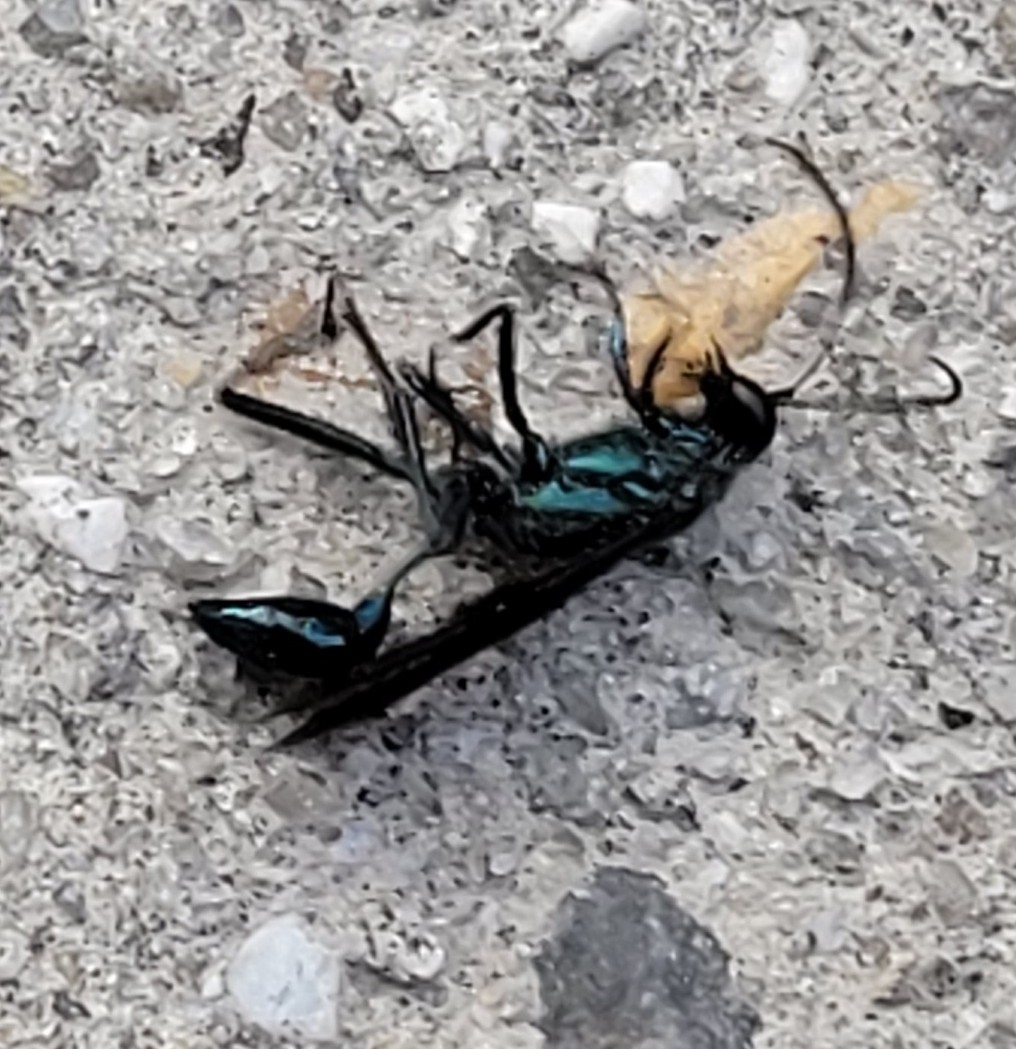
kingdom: Animalia
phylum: Arthropoda
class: Insecta
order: Hymenoptera
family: Sphecidae
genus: Chalybion
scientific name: Chalybion californicum
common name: Mud dauber
